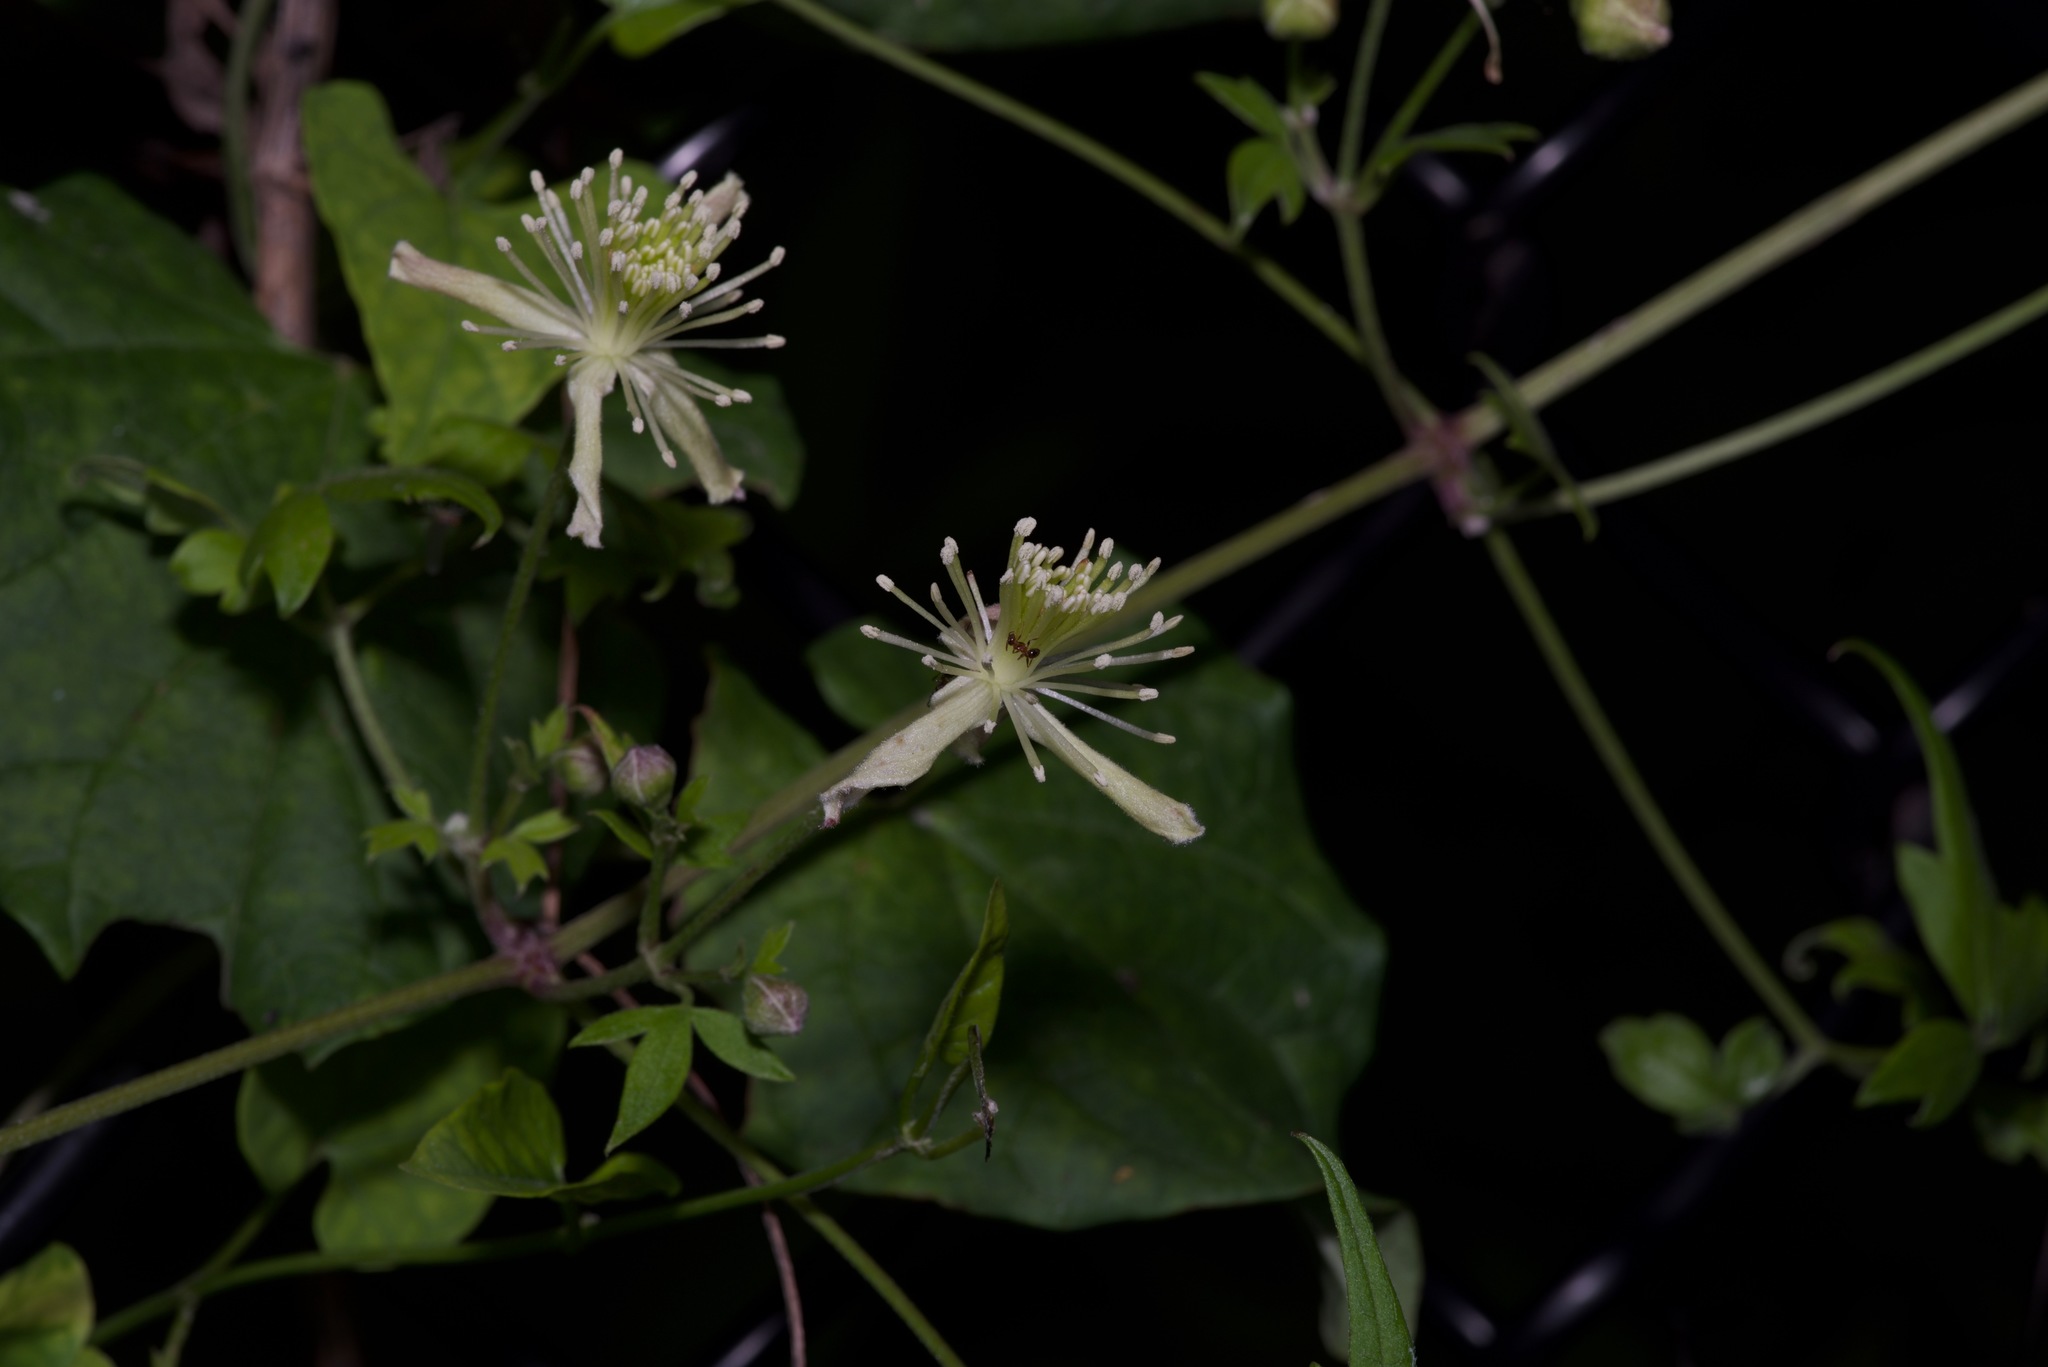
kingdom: Plantae
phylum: Tracheophyta
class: Magnoliopsida
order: Ranunculales
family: Ranunculaceae
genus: Clematis
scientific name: Clematis drummondii
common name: Texas virgin's bower
